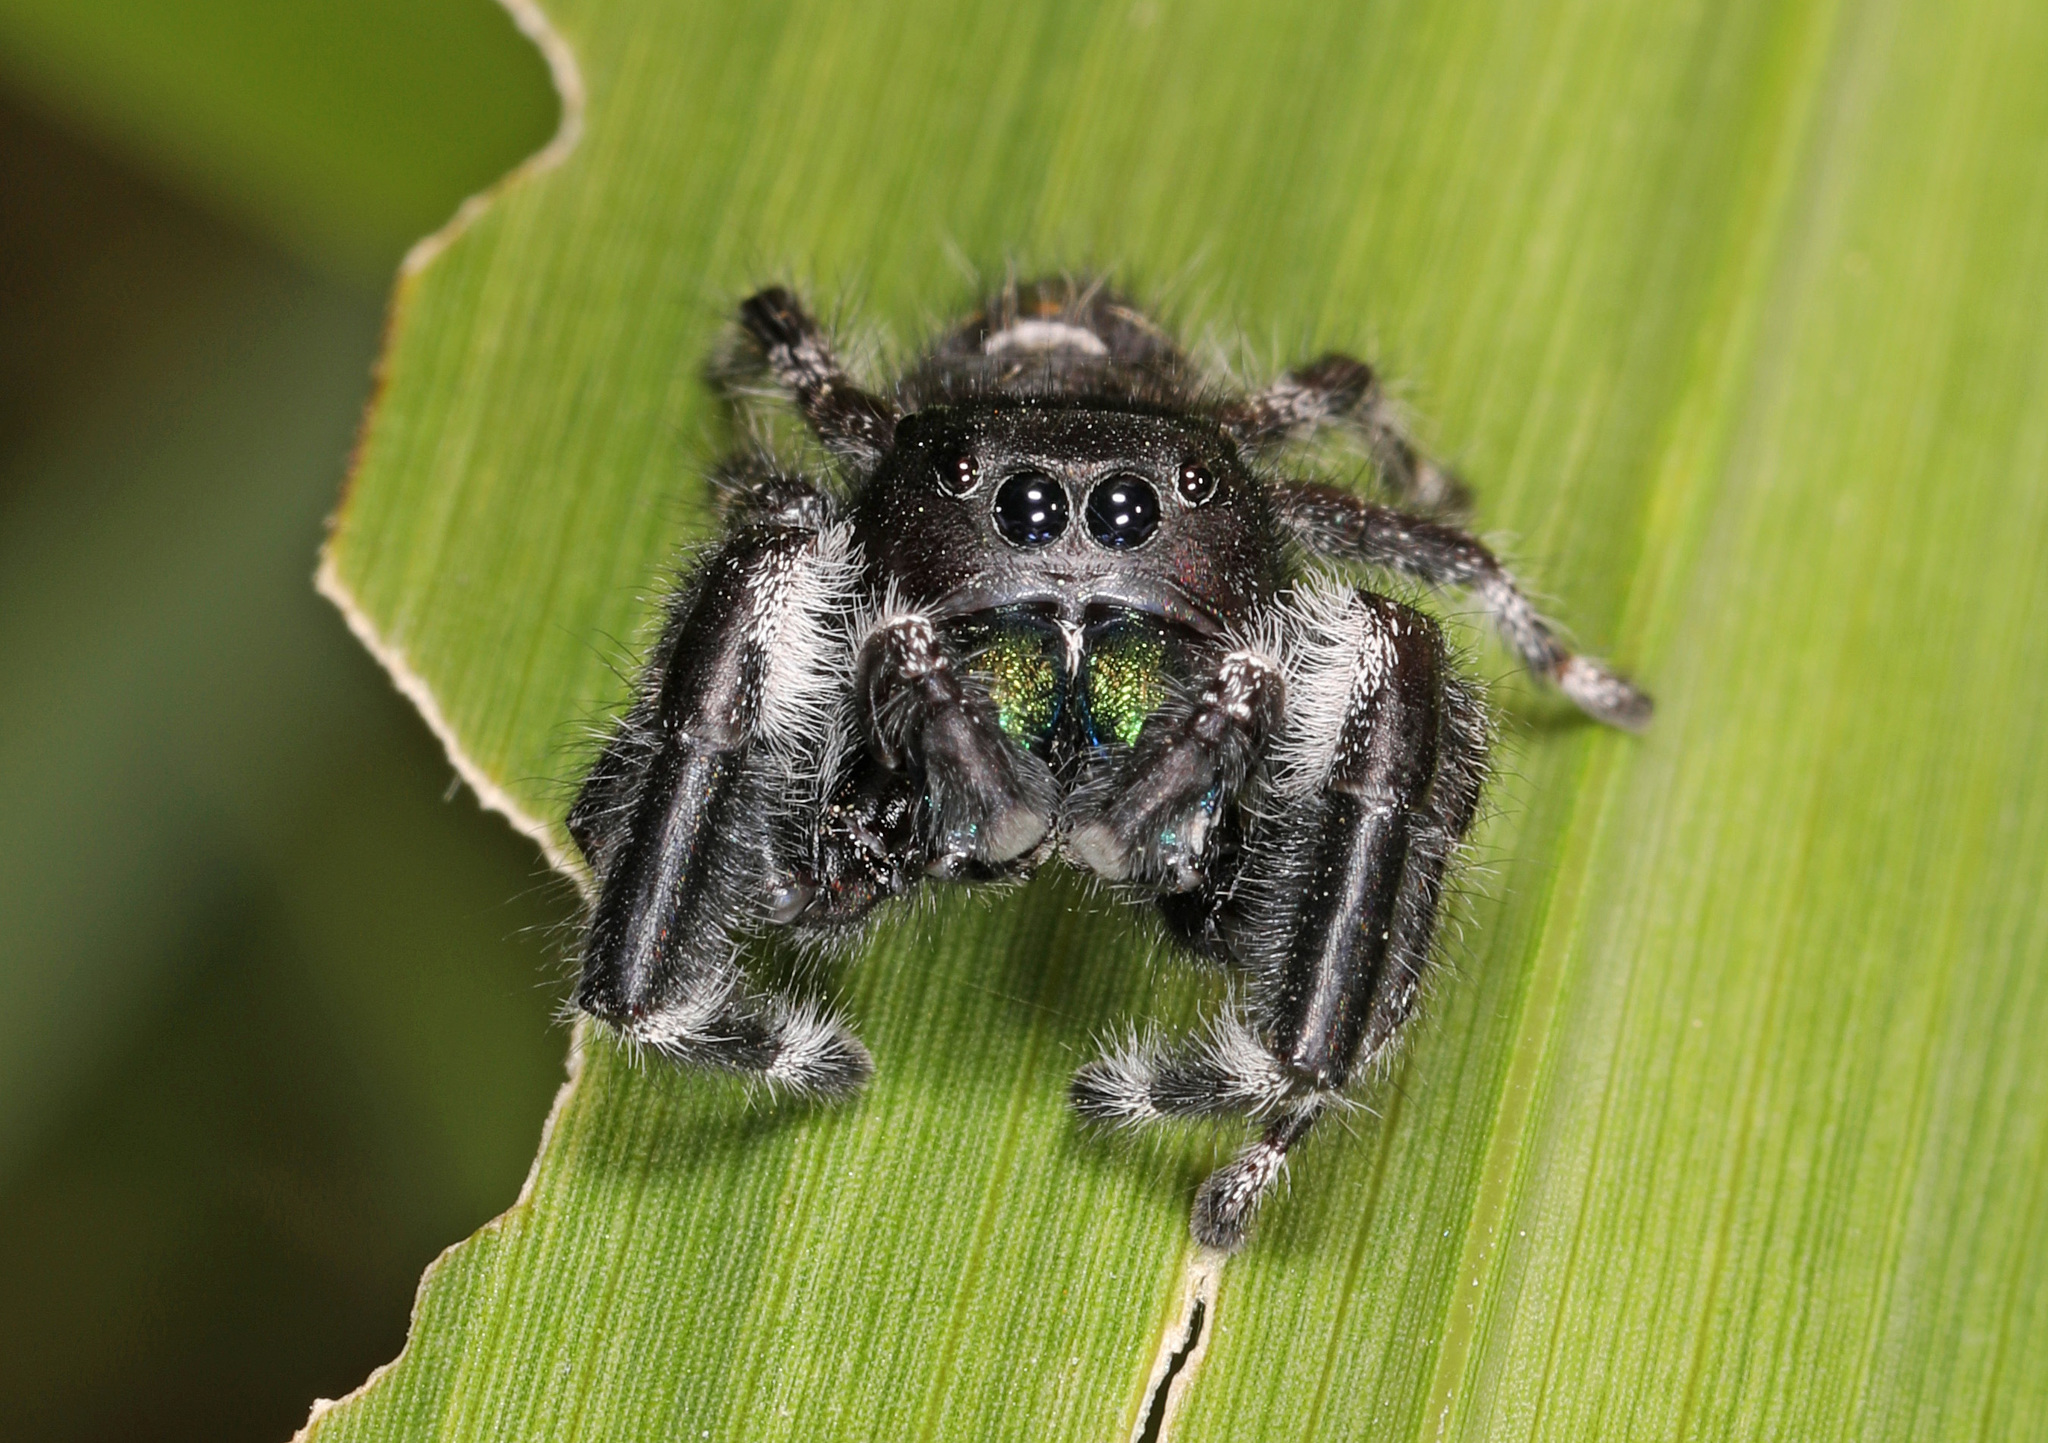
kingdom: Animalia
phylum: Arthropoda
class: Arachnida
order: Araneae
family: Salticidae
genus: Phidippus
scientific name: Phidippus audax
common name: Bold jumper
